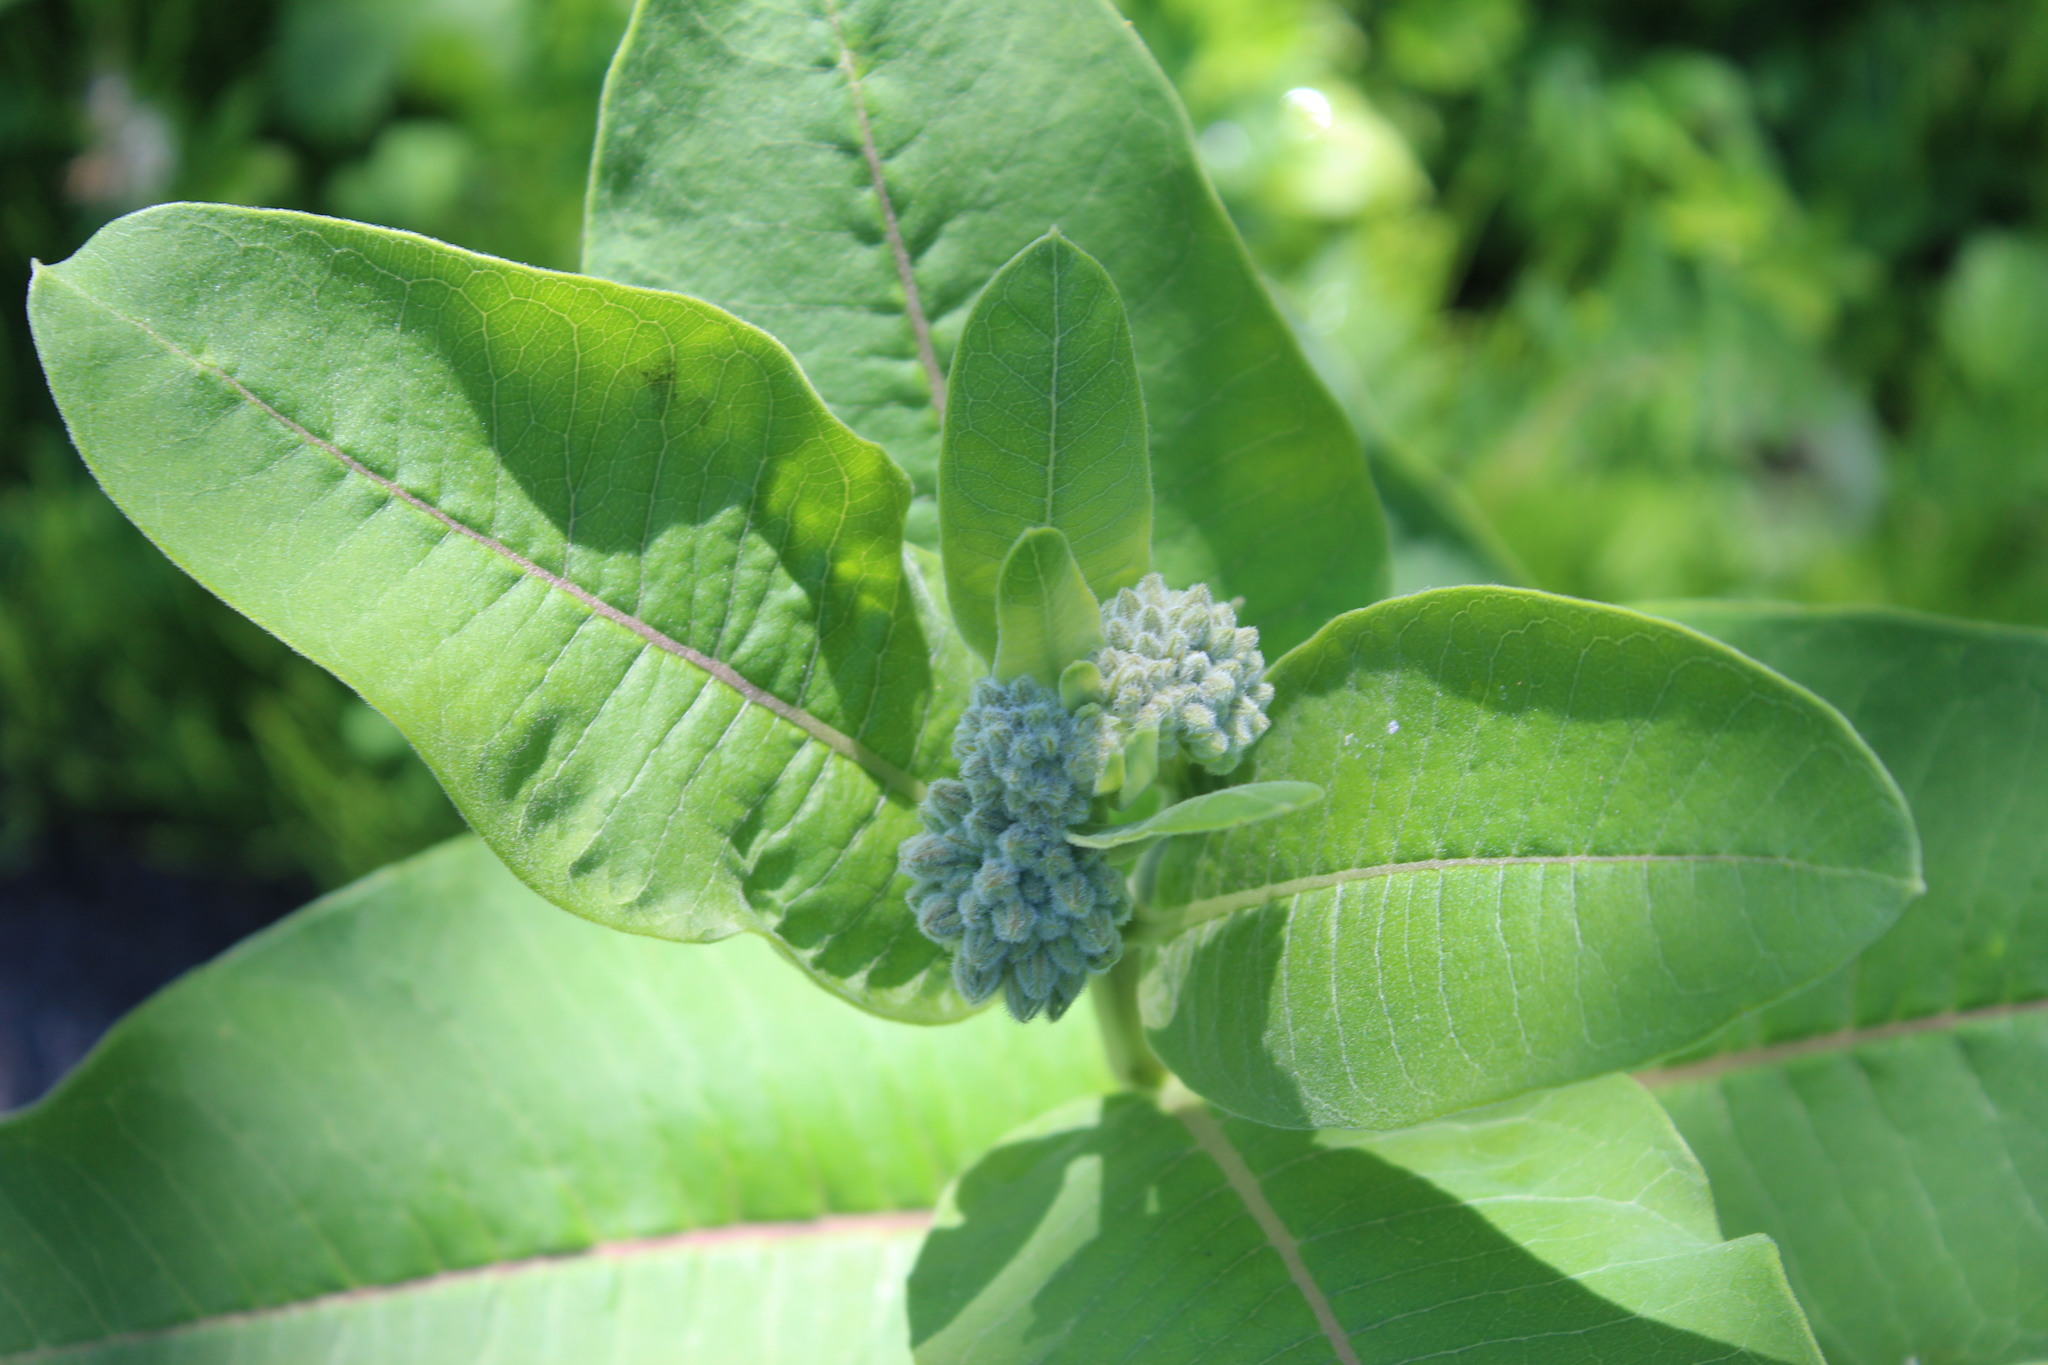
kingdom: Plantae
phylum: Tracheophyta
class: Magnoliopsida
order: Gentianales
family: Apocynaceae
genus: Asclepias
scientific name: Asclepias syriaca
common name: Common milkweed
